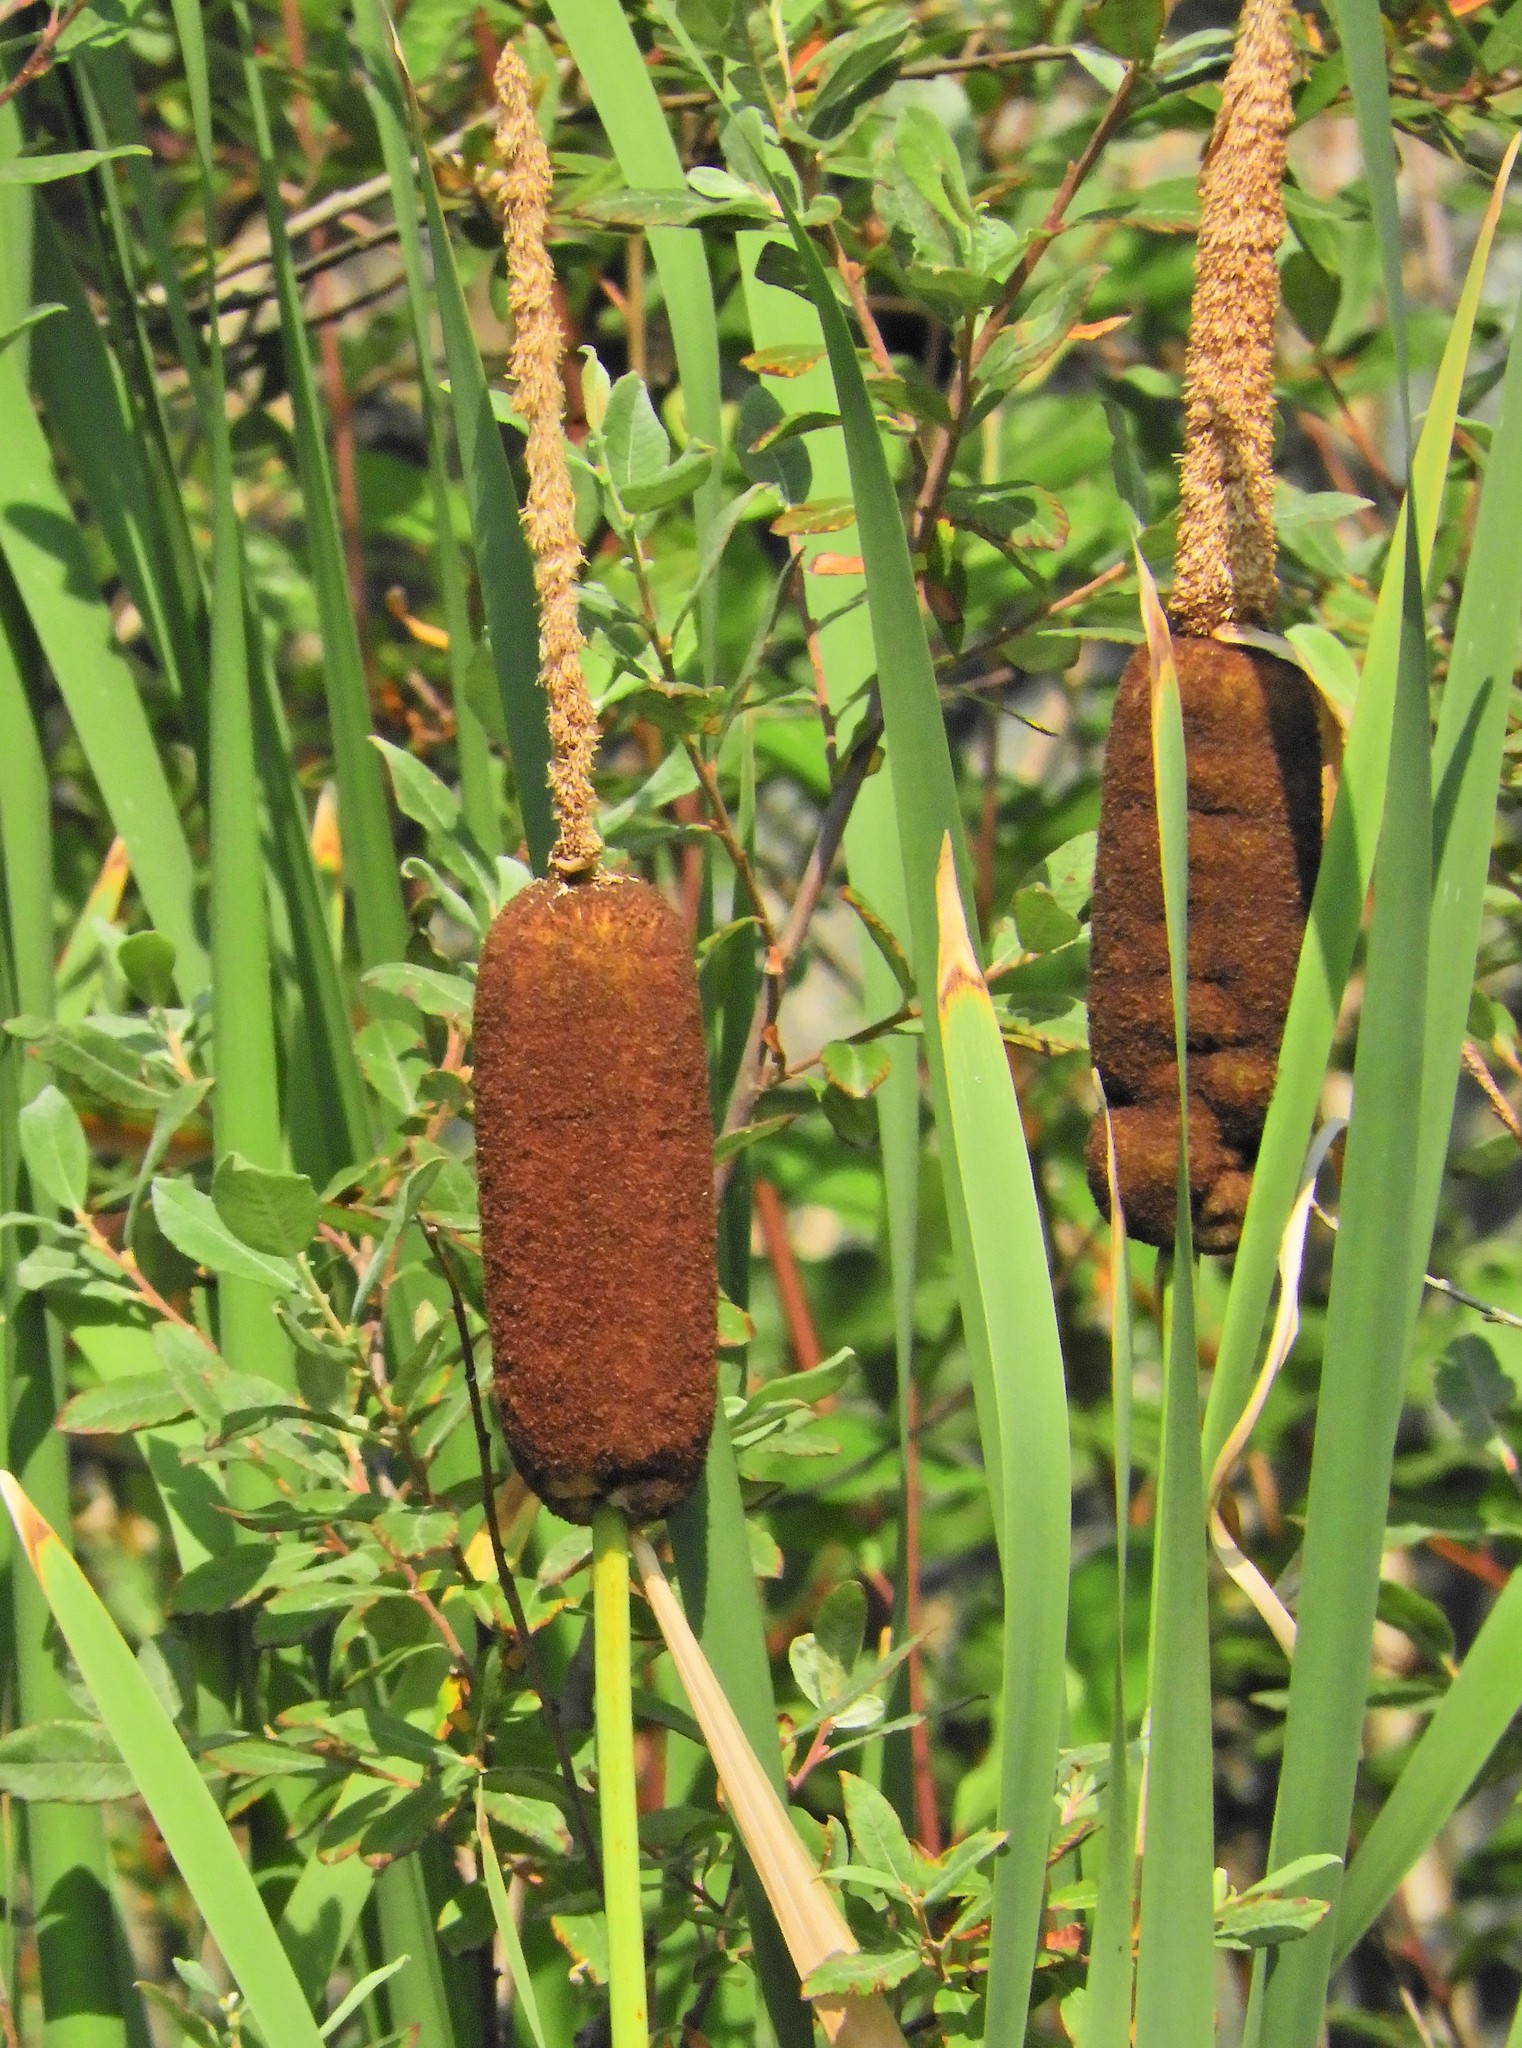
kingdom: Plantae
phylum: Tracheophyta
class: Liliopsida
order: Poales
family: Typhaceae
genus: Typha
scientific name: Typha latifolia
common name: Broadleaf cattail
